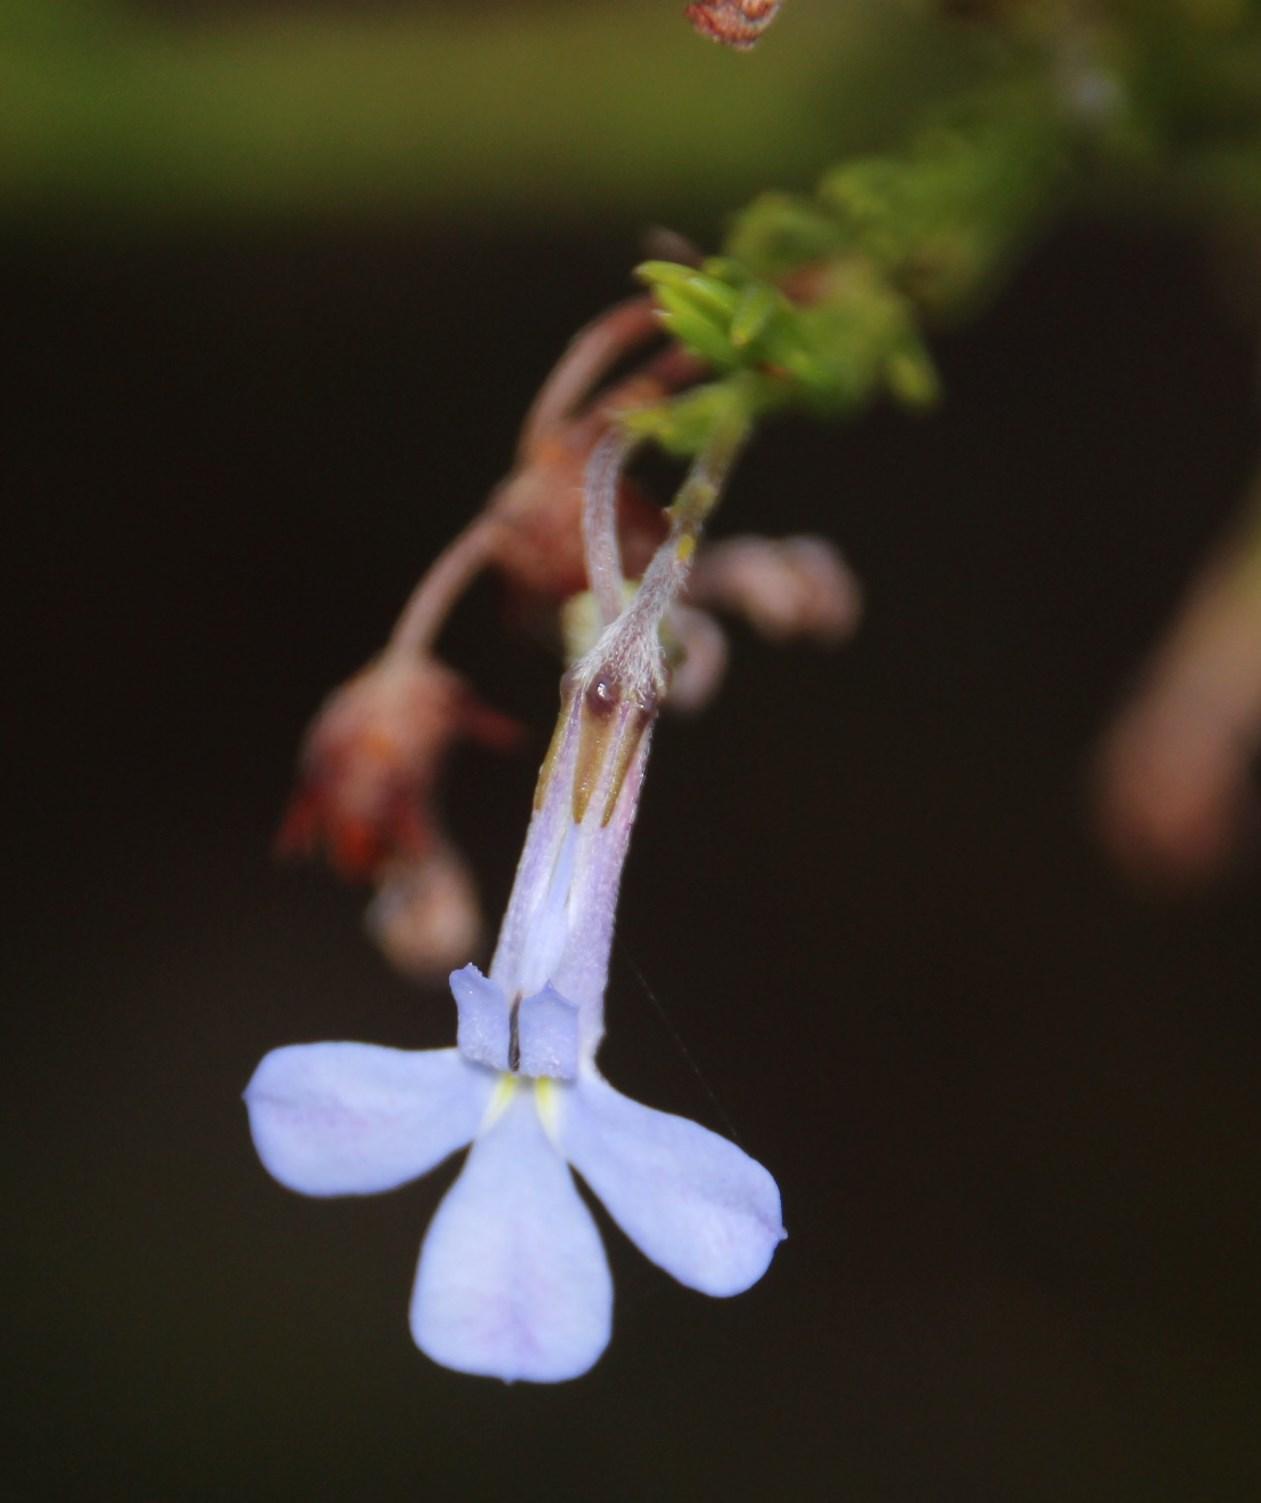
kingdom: Plantae
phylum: Tracheophyta
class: Magnoliopsida
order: Asterales
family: Campanulaceae
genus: Lobelia
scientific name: Lobelia pinifolia
